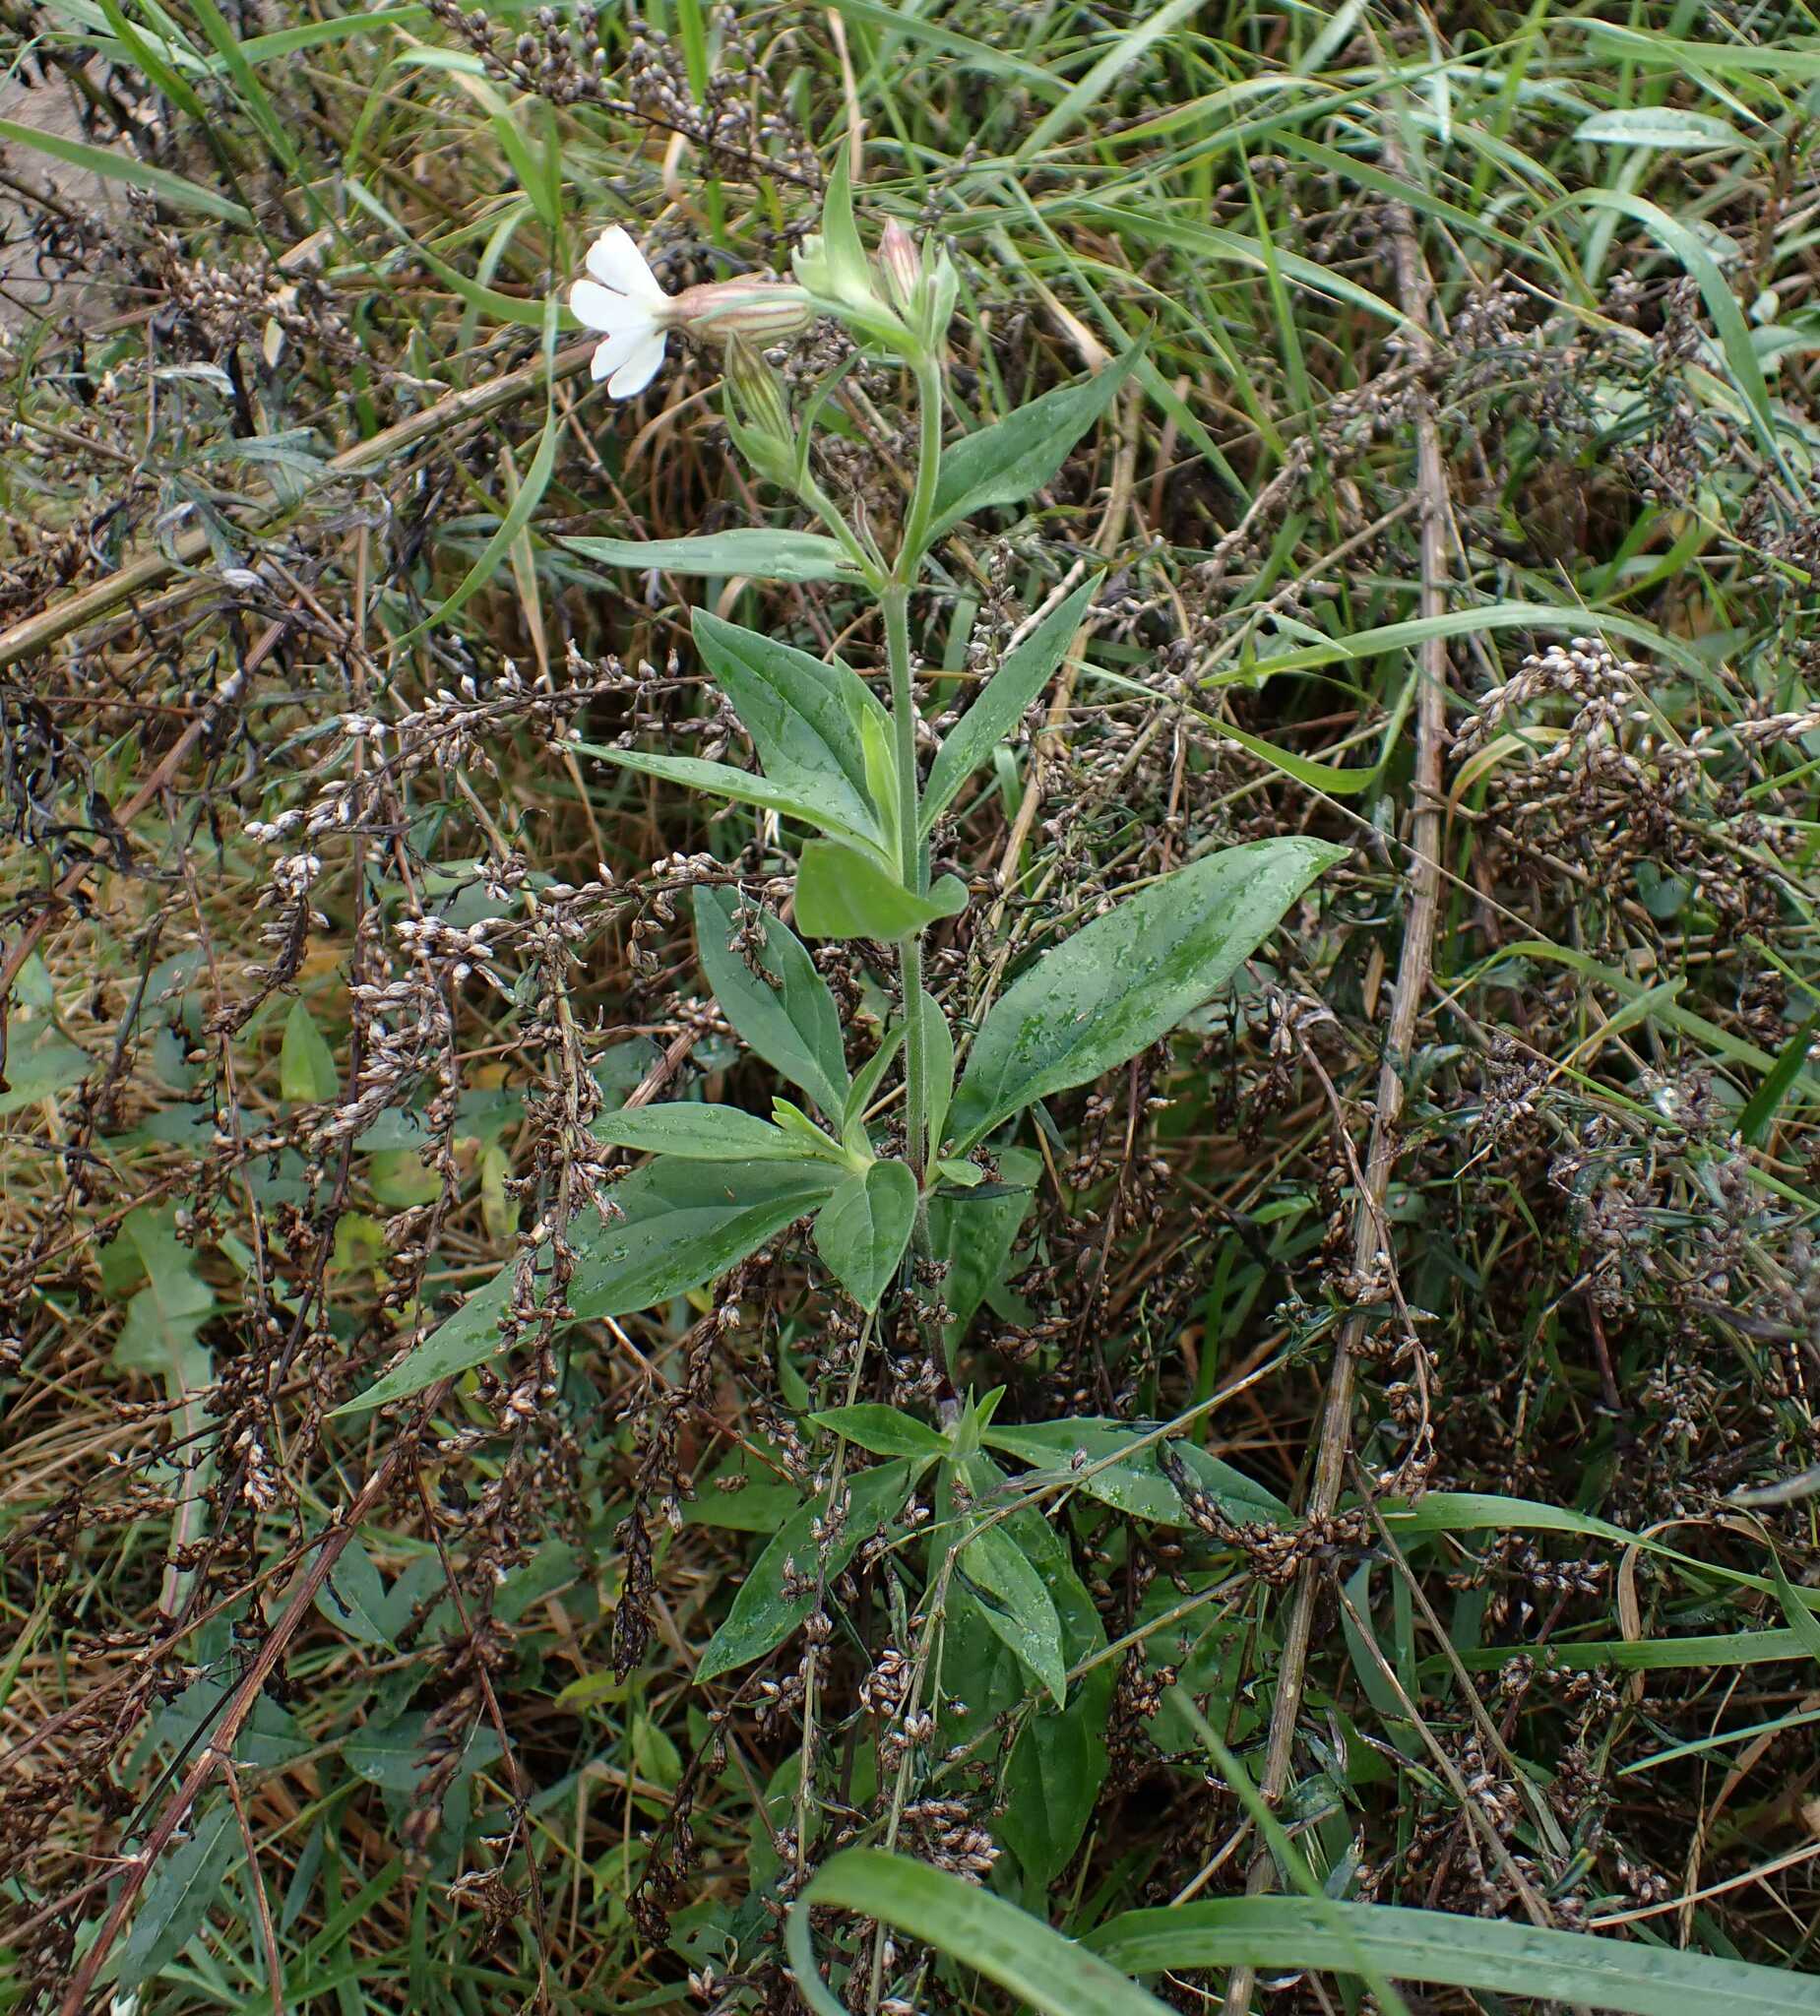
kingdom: Plantae
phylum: Tracheophyta
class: Magnoliopsida
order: Caryophyllales
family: Caryophyllaceae
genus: Silene
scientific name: Silene latifolia
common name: White campion
